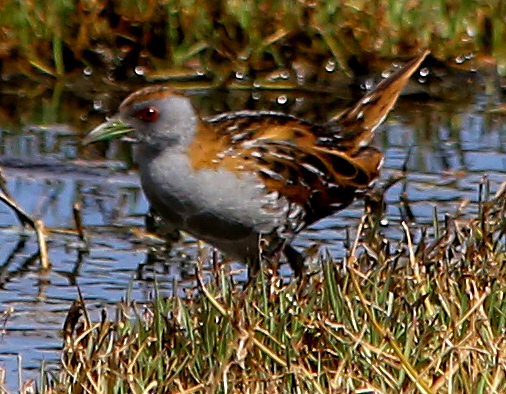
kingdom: Animalia
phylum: Chordata
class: Aves
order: Gruiformes
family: Rallidae
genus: Porzana
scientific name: Porzana pusilla
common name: Baillon's crake
